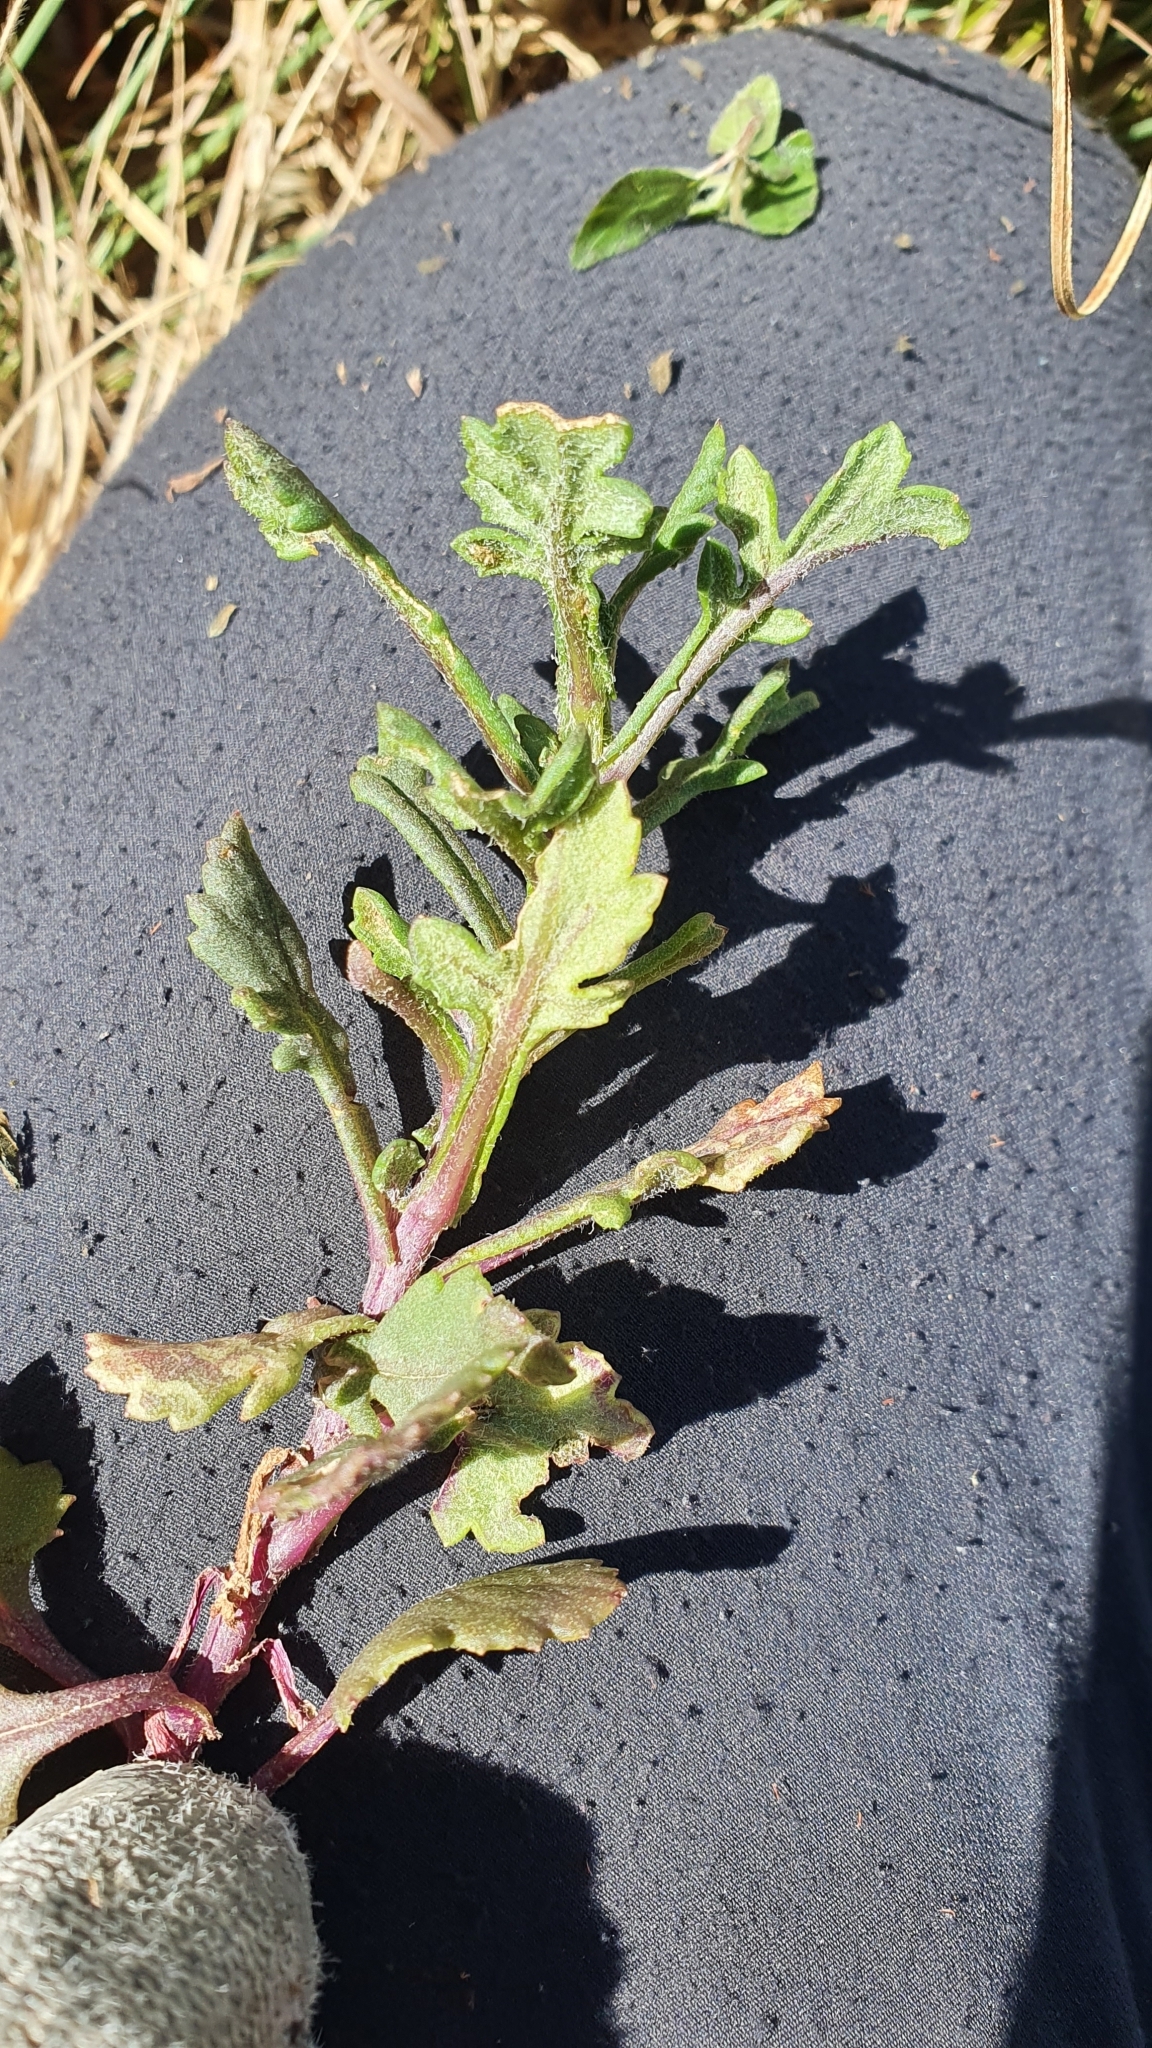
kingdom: Plantae
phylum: Tracheophyta
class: Magnoliopsida
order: Asterales
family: Asteraceae
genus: Senecio
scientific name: Senecio elegans
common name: Purple groundsel
